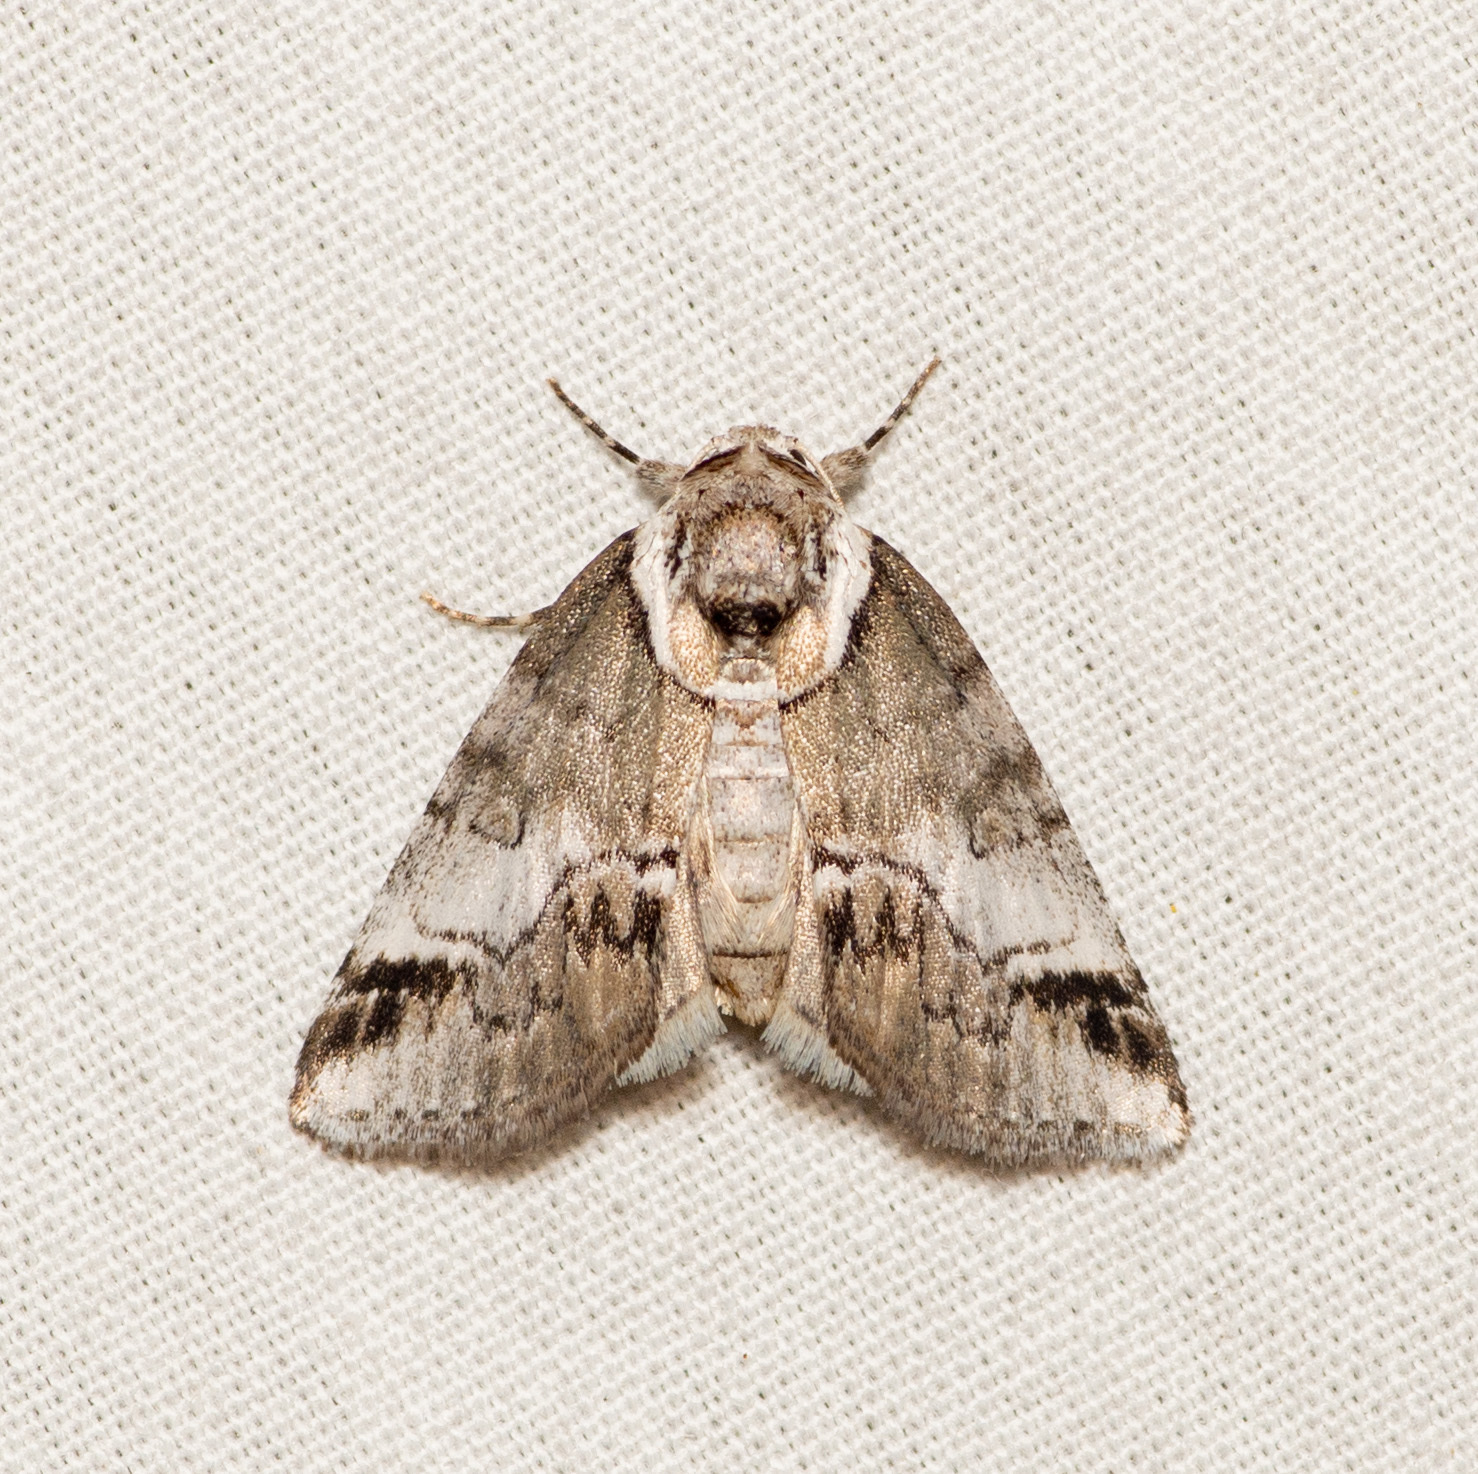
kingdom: Animalia
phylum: Arthropoda
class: Insecta
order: Lepidoptera
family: Nolidae
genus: Baileya
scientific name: Baileya australis
